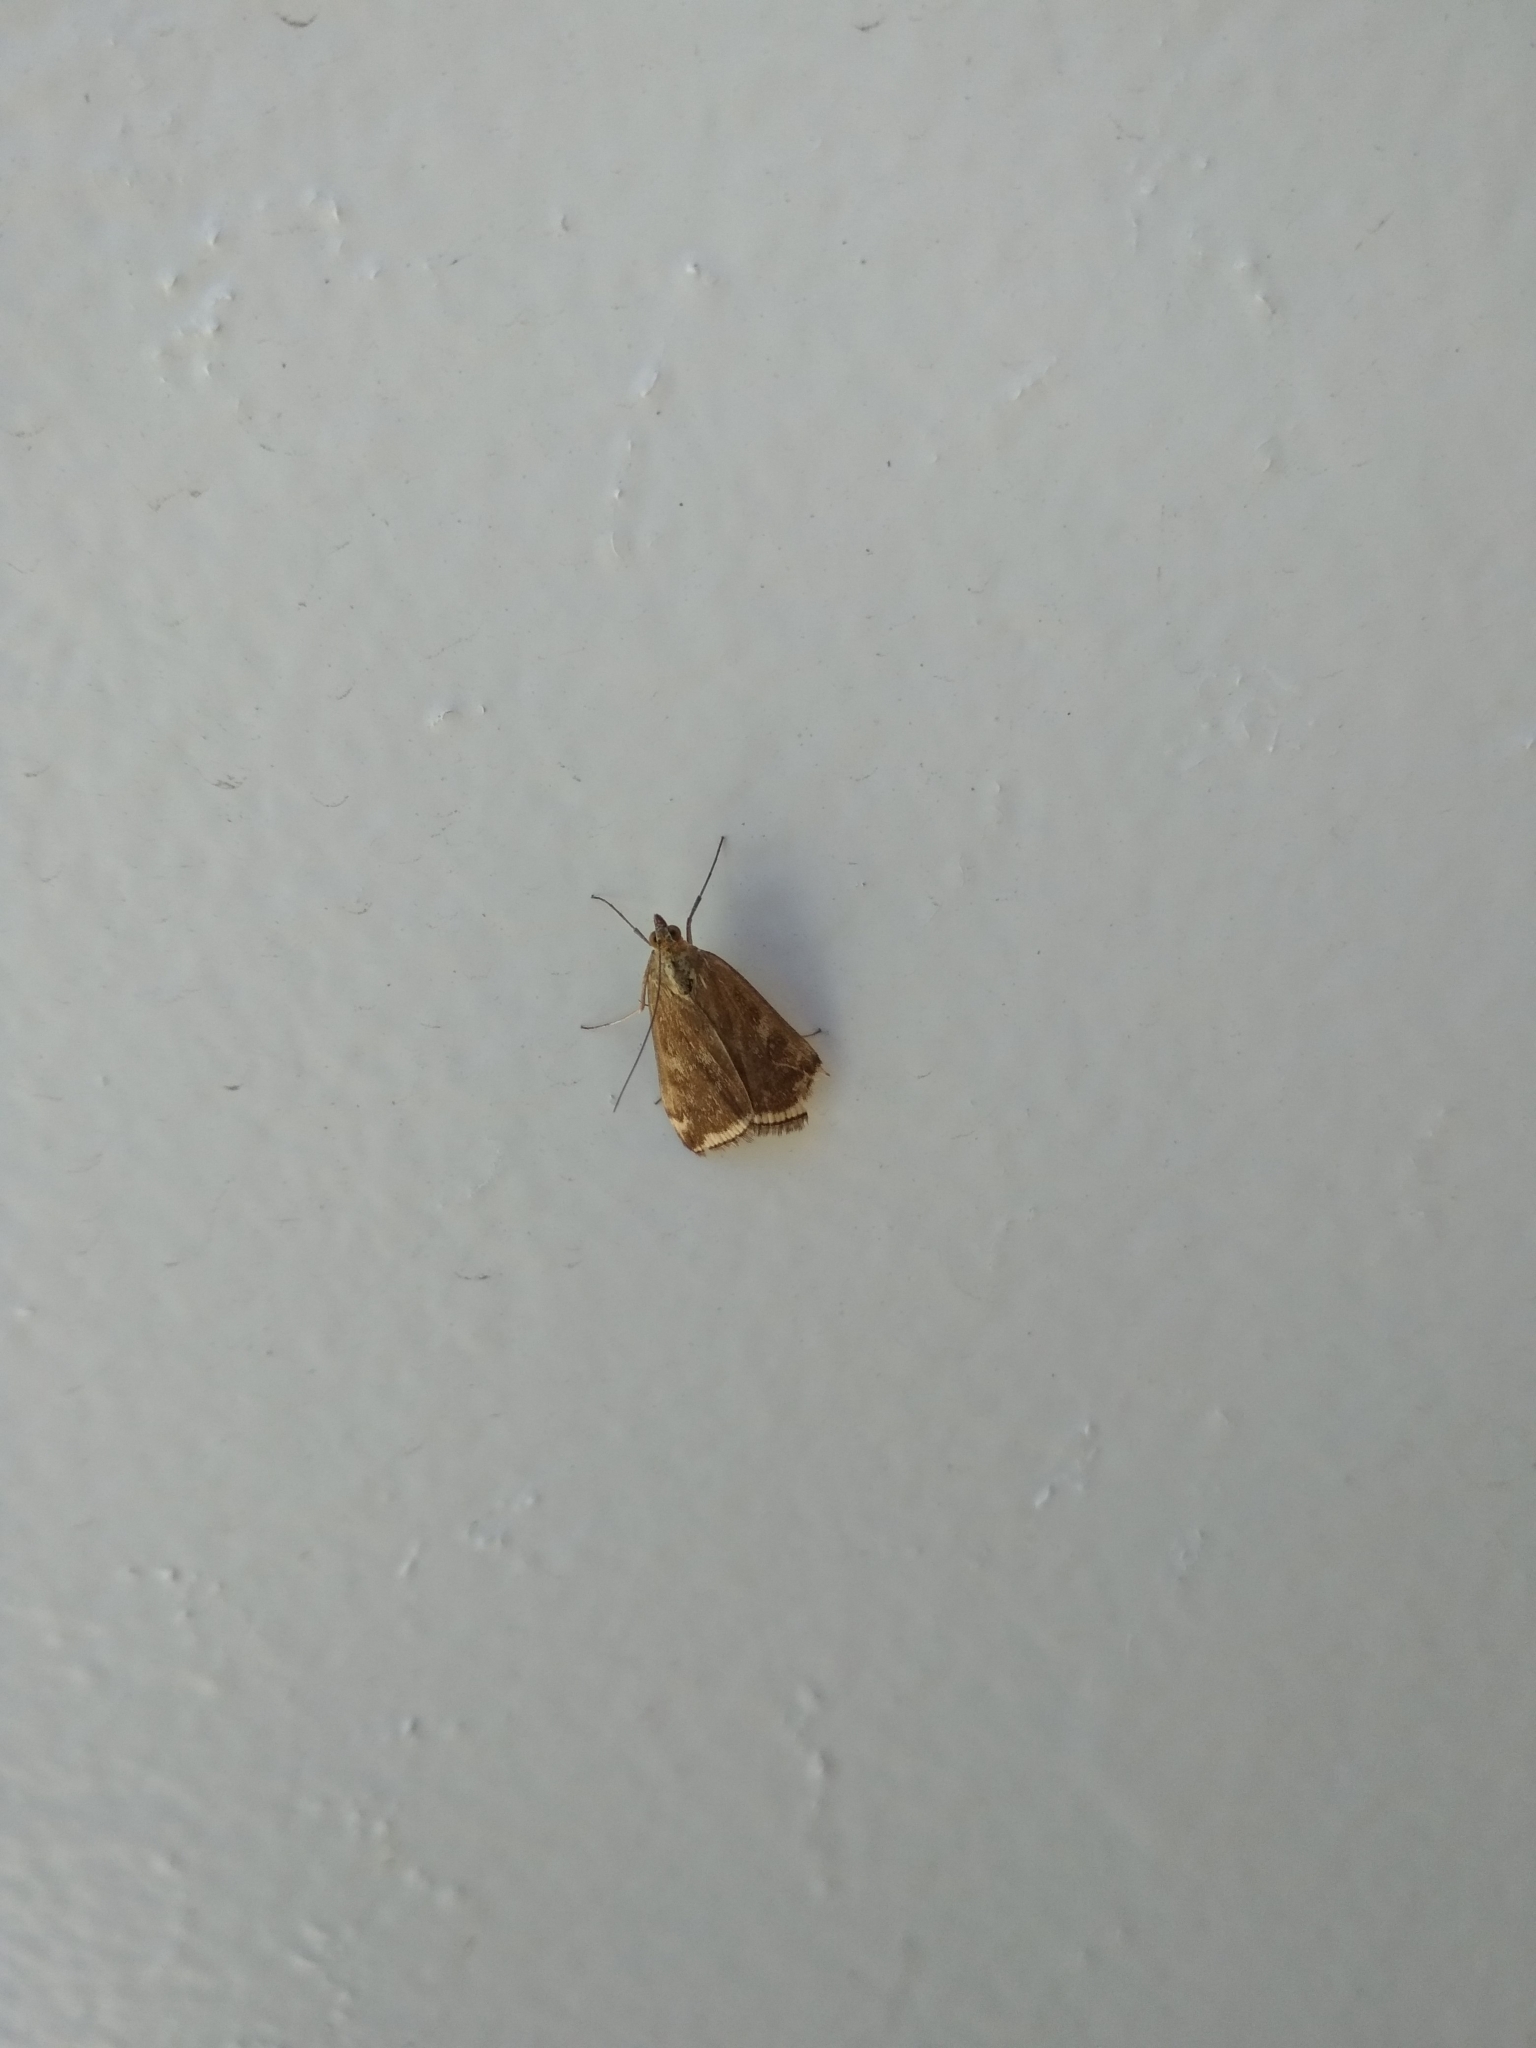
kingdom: Animalia
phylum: Arthropoda
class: Insecta
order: Lepidoptera
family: Crambidae
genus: Loxostege
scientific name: Loxostege sticticalis
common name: Crambid moth
